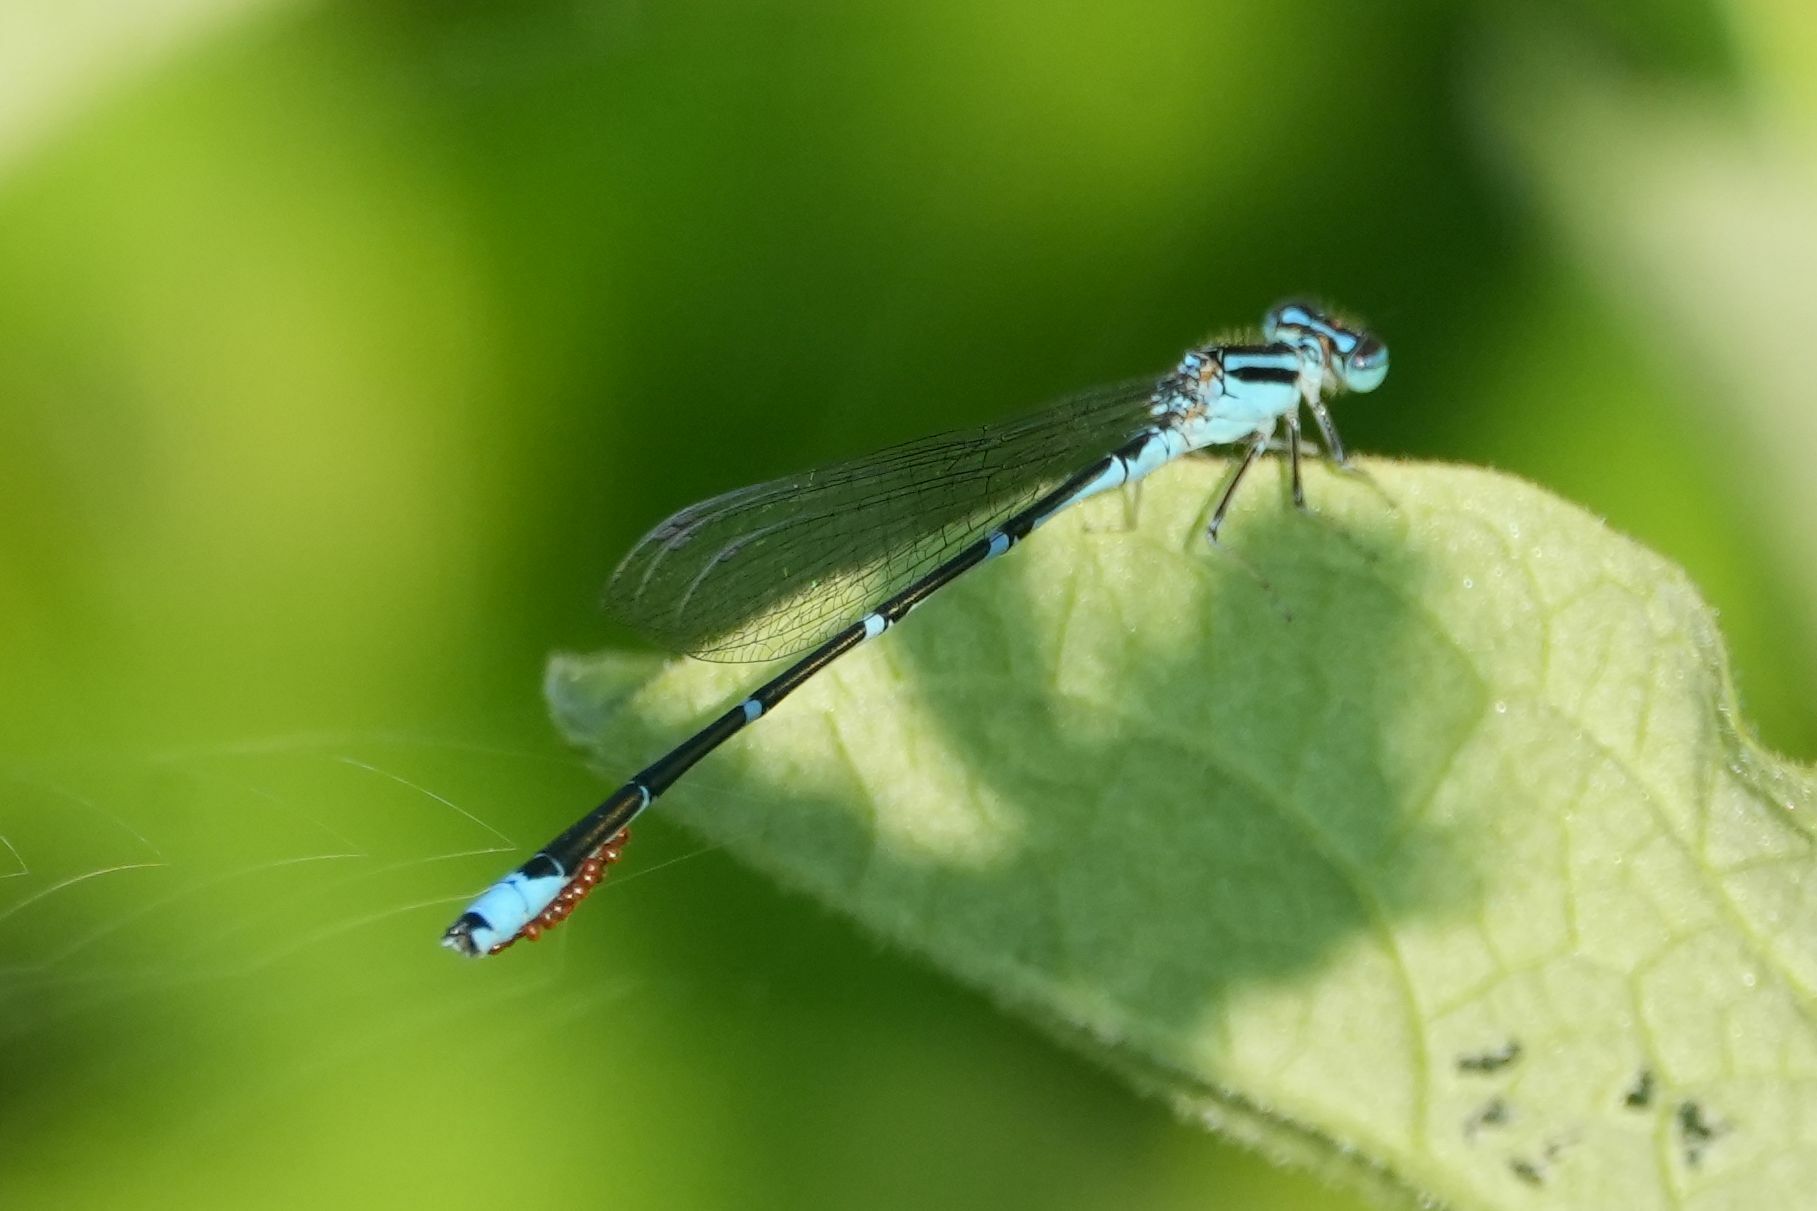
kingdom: Animalia
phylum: Arthropoda
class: Insecta
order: Odonata
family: Coenagrionidae
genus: Enallagma
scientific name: Enallagma exsulans
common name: Stream bluet
